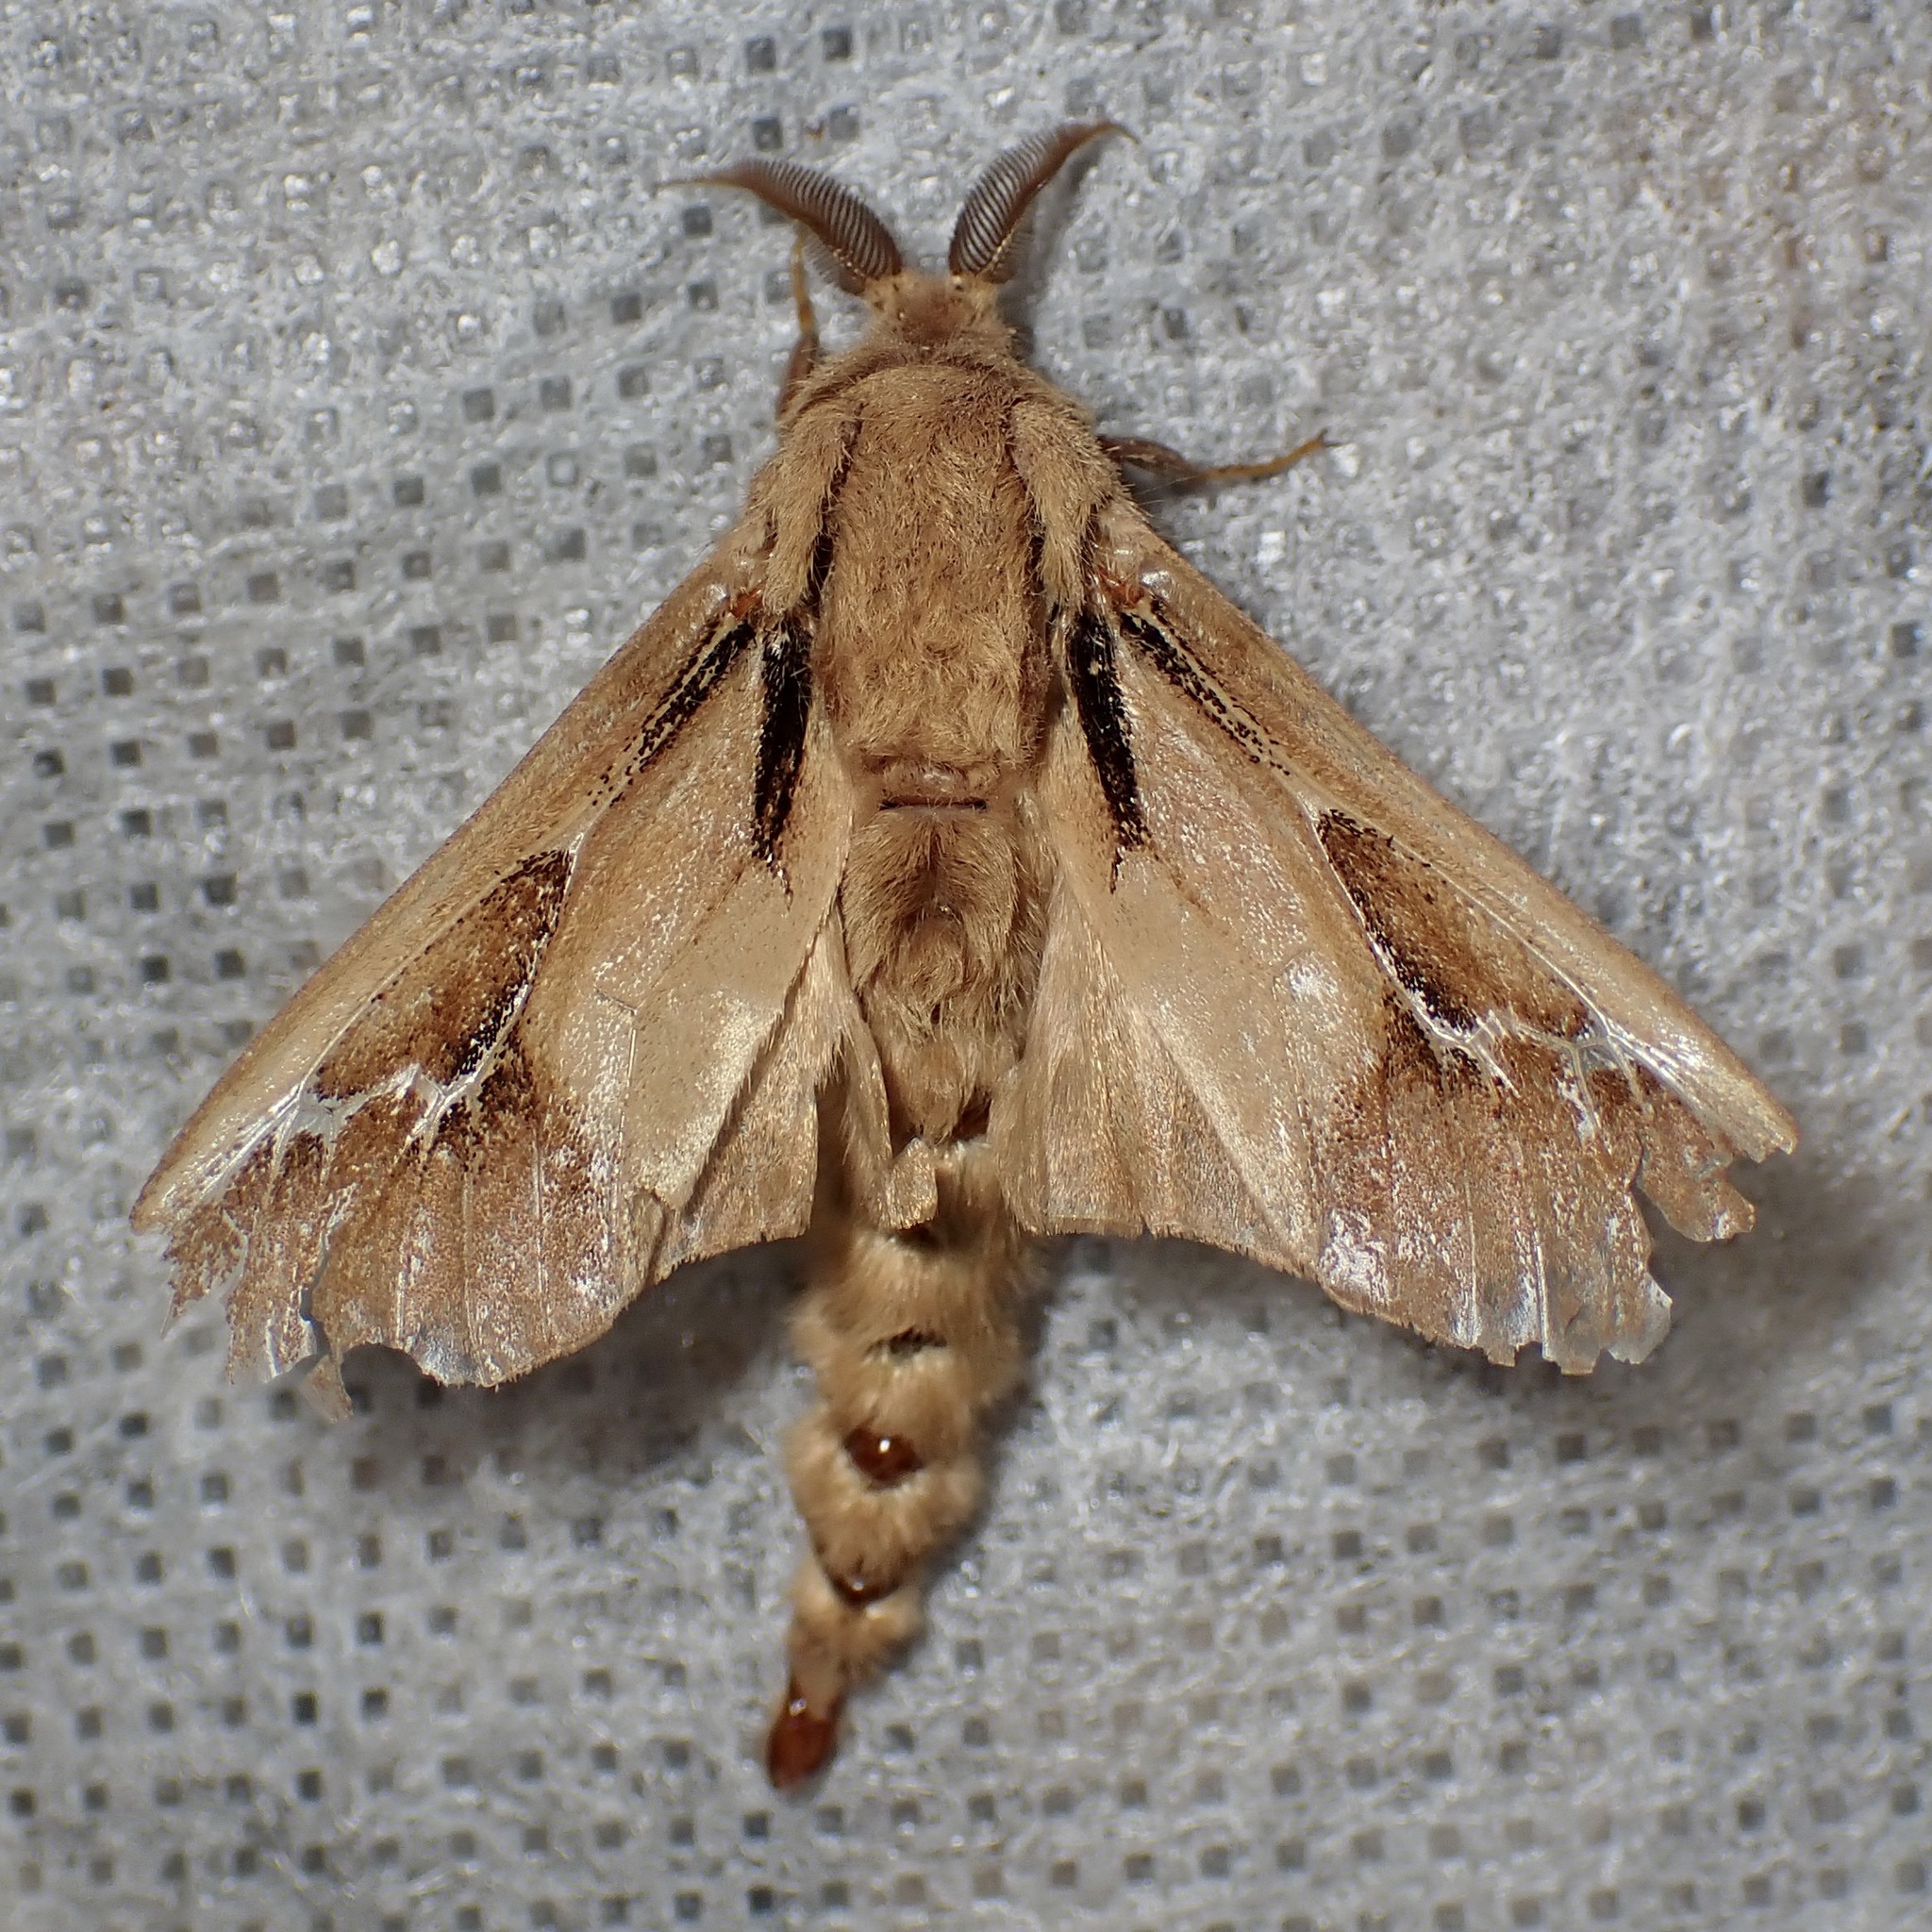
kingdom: Animalia
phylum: Arthropoda
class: Insecta
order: Lepidoptera
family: Psychidae
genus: Oiketicus
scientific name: Oiketicus townsendi
